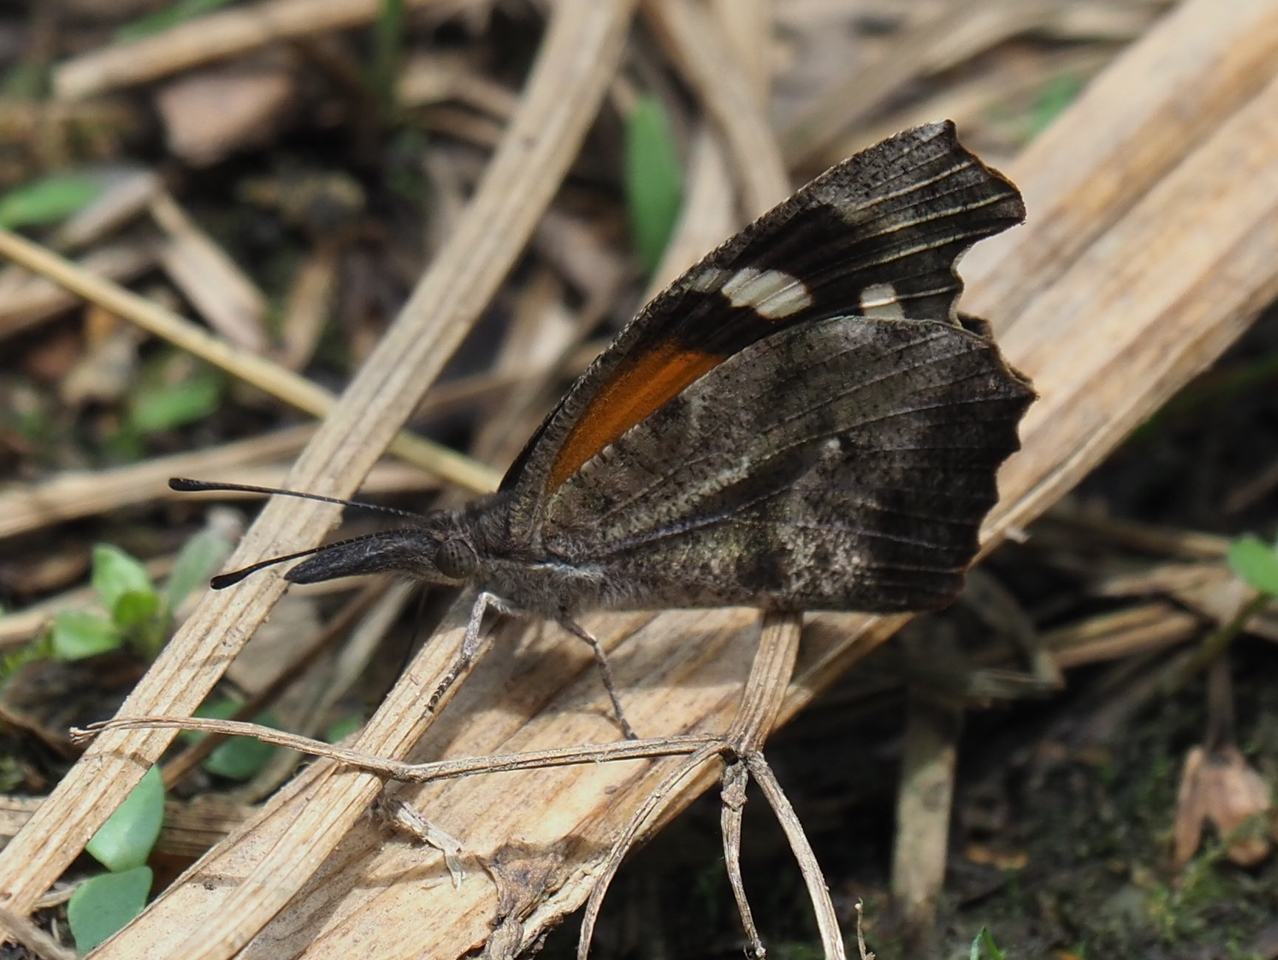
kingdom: Animalia
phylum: Arthropoda
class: Insecta
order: Lepidoptera
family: Nymphalidae
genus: Libytheana
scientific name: Libytheana carinenta
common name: American snout
